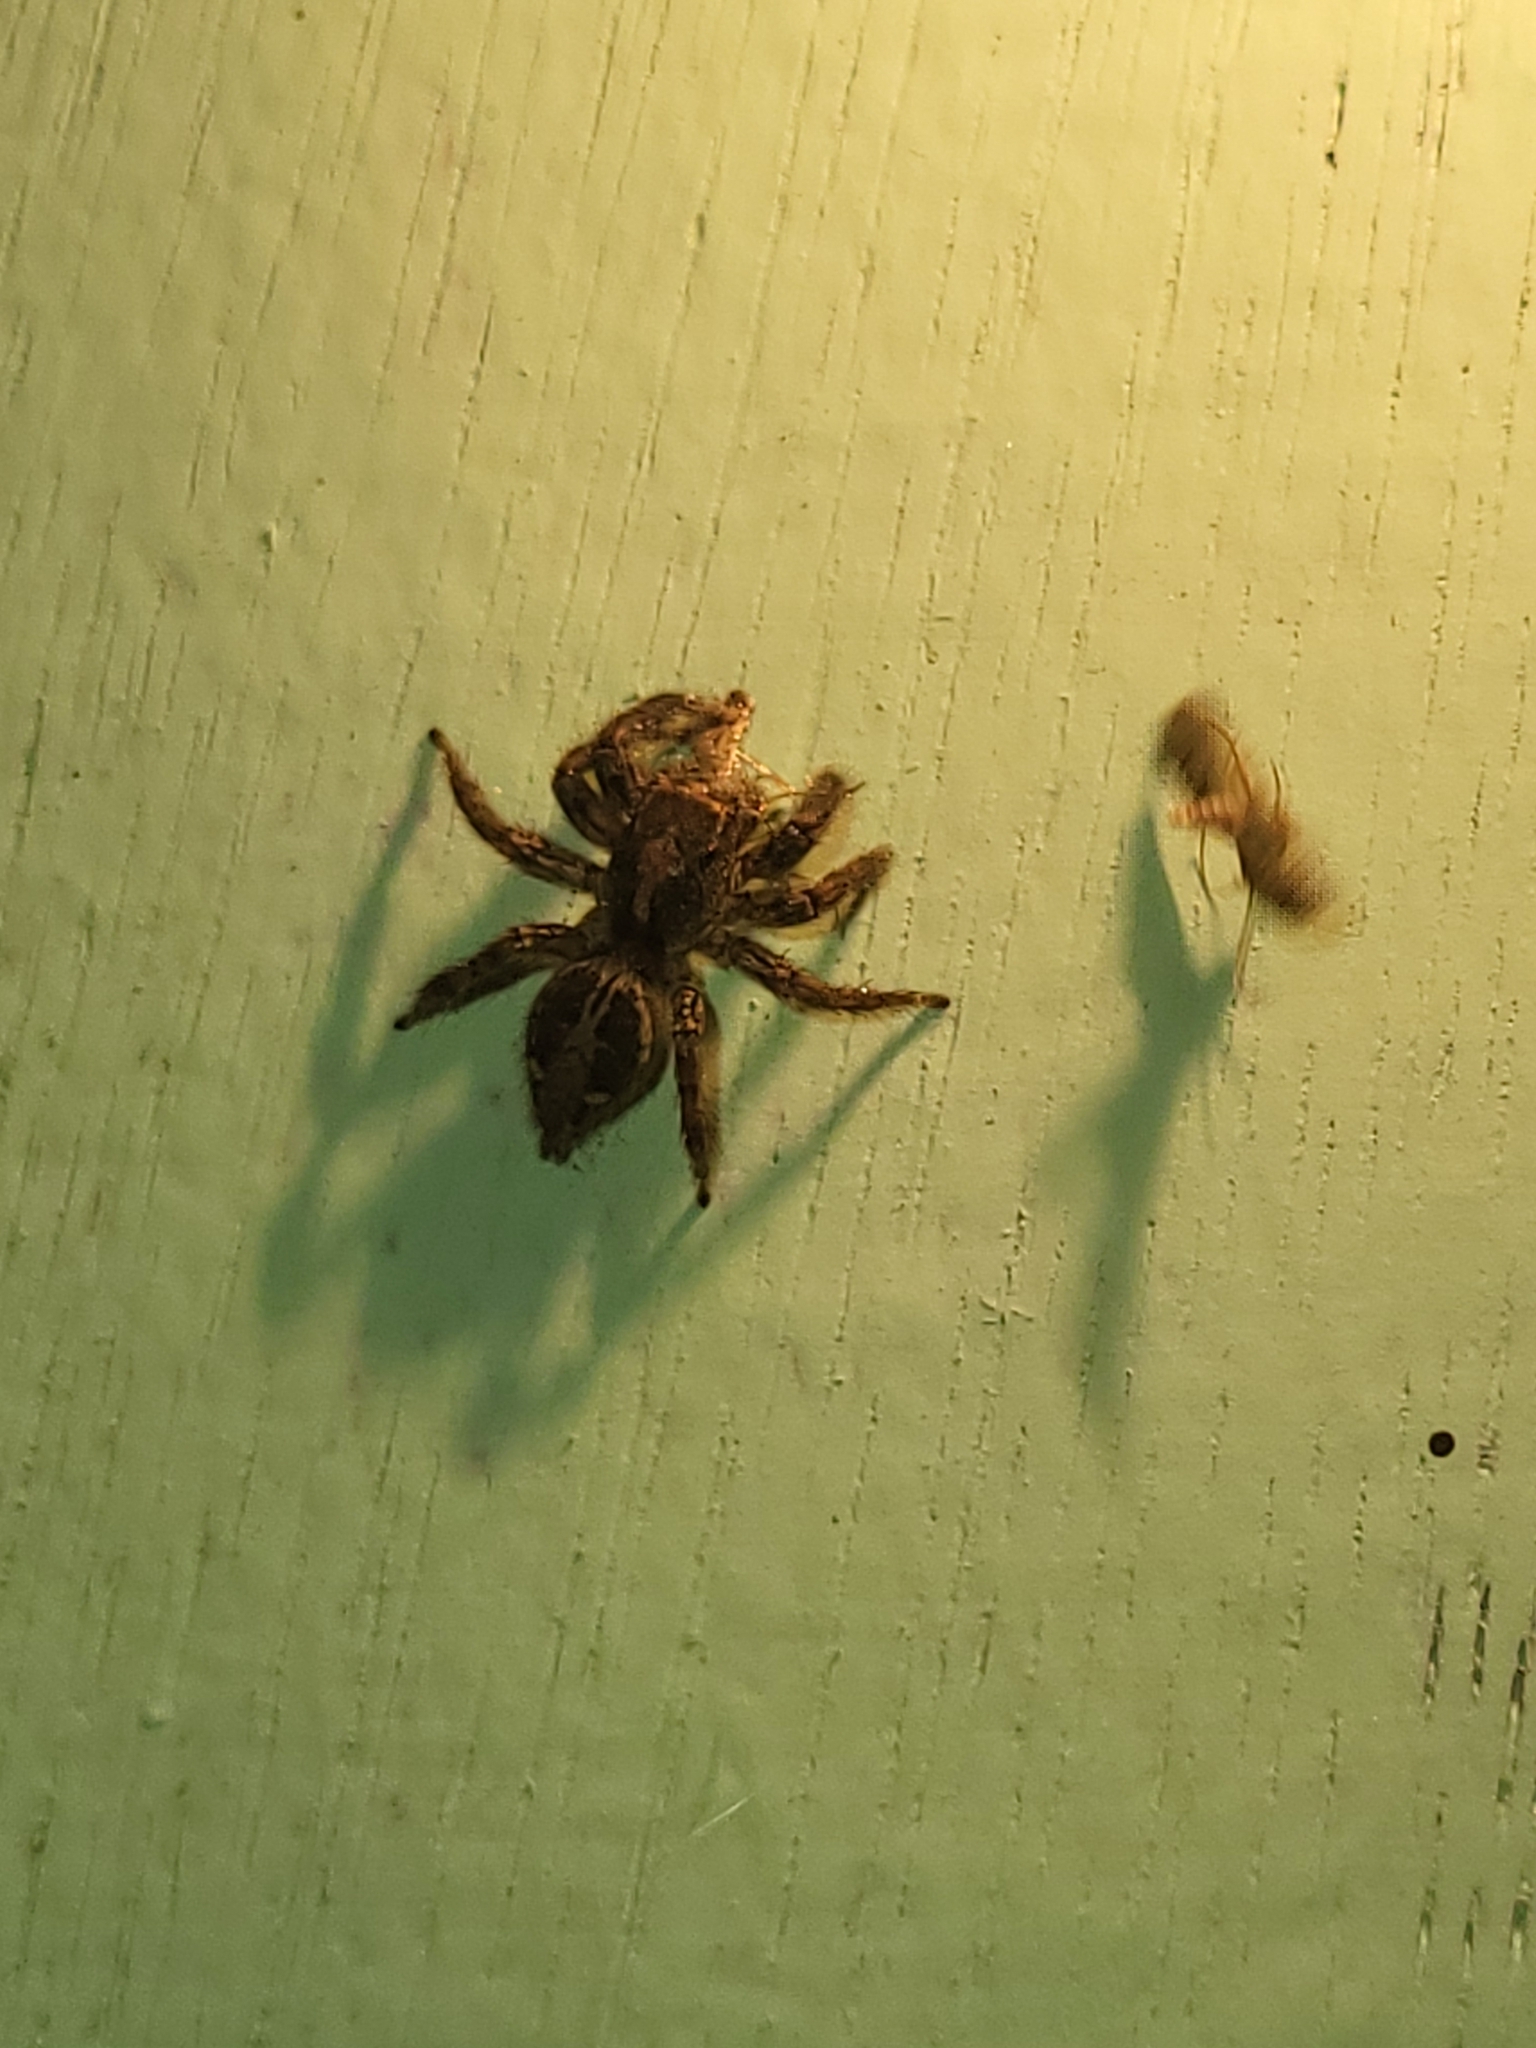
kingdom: Animalia
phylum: Arthropoda
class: Arachnida
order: Araneae
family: Salticidae
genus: Plexippus
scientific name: Plexippus paykulli
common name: Pantropical jumper
